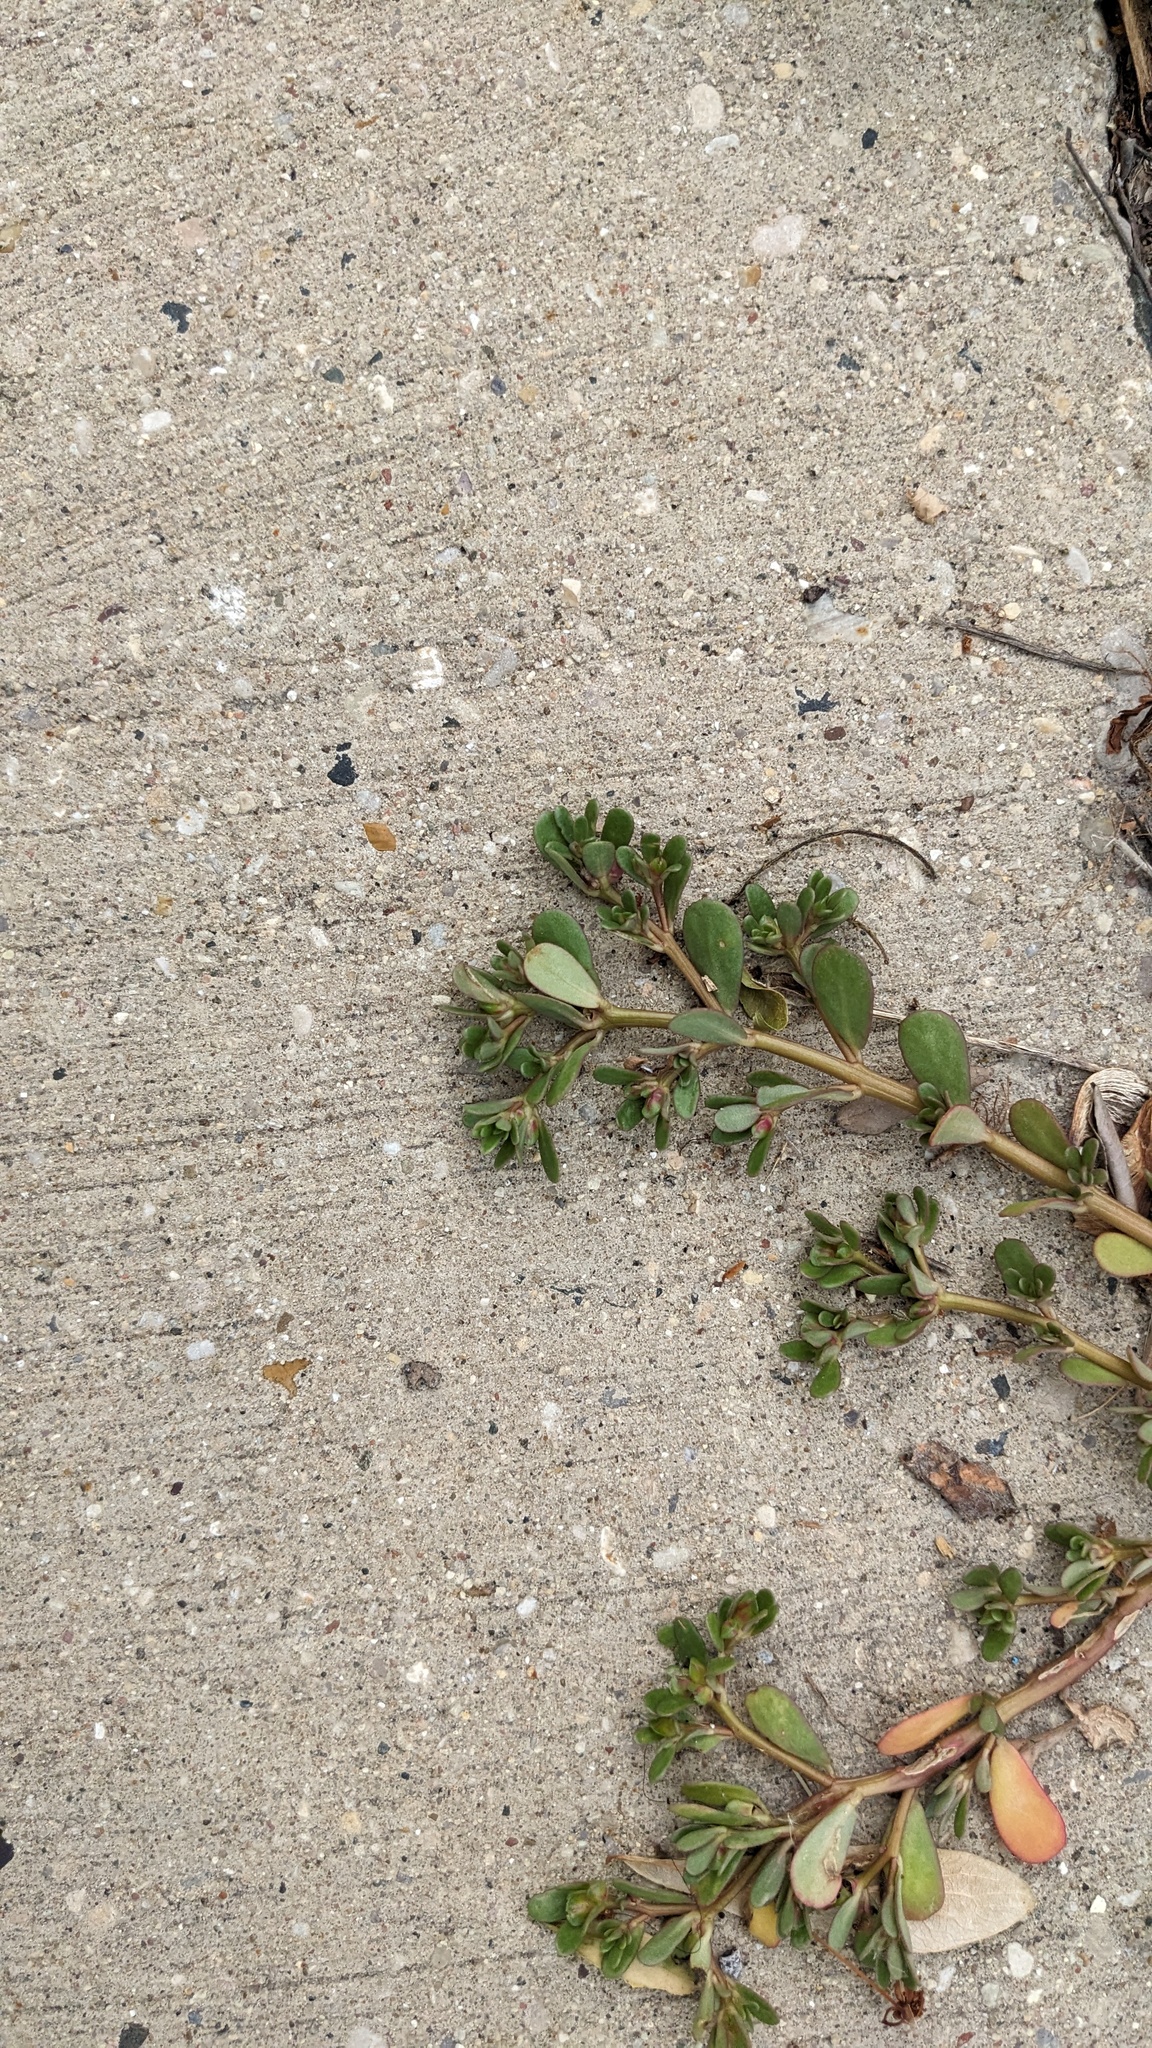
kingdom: Plantae
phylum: Tracheophyta
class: Magnoliopsida
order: Caryophyllales
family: Portulacaceae
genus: Portulaca
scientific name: Portulaca oleracea
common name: Common purslane
